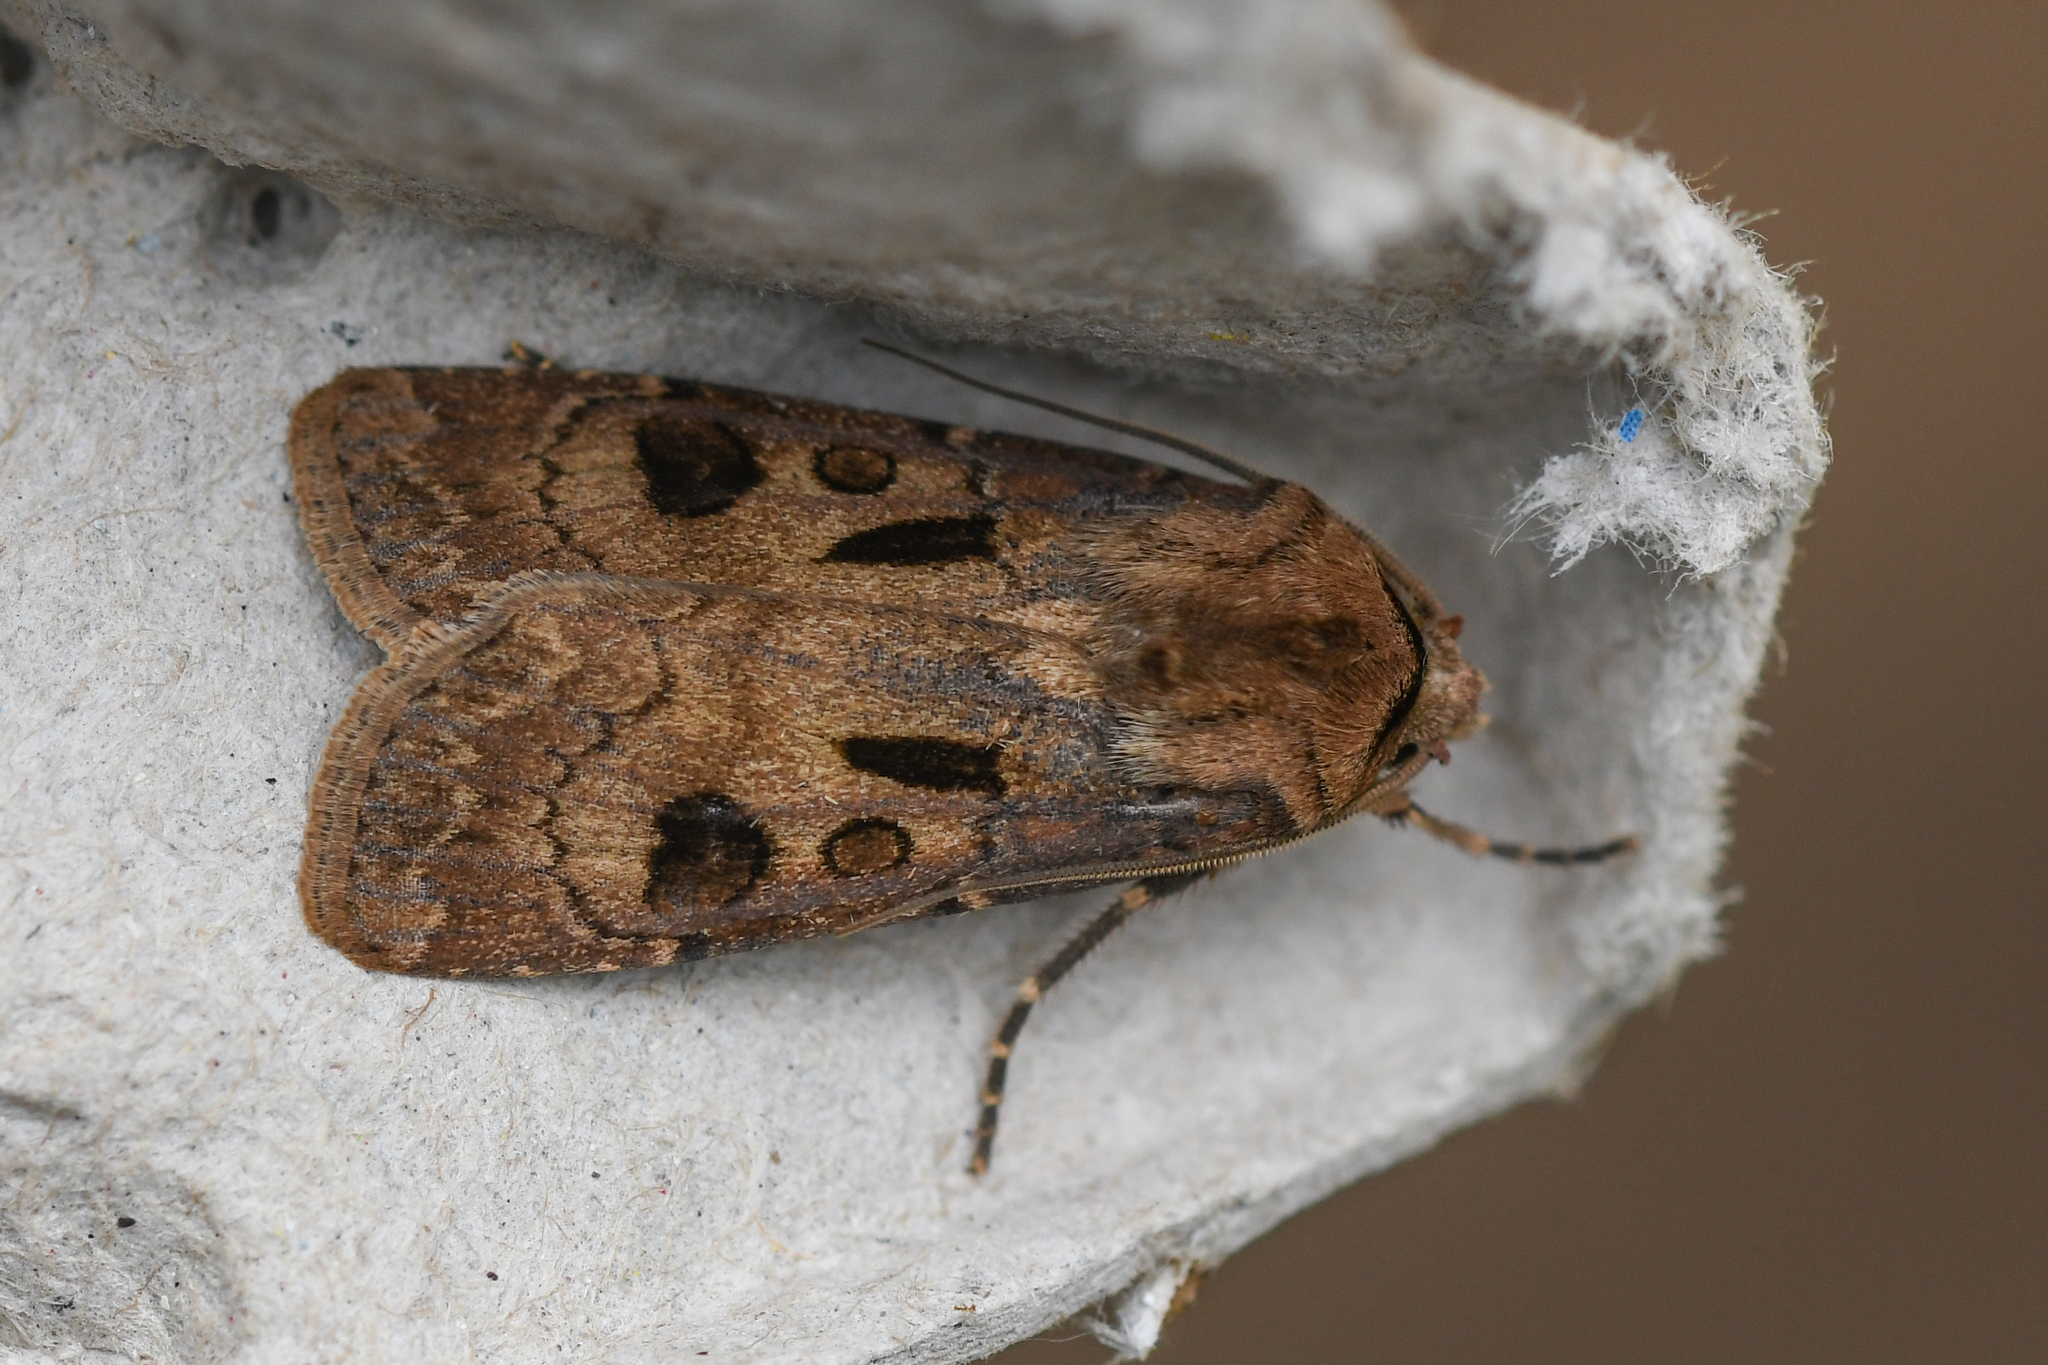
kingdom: Animalia
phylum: Arthropoda
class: Insecta
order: Lepidoptera
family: Noctuidae
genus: Agrotis
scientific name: Agrotis exclamationis
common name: Heart and dart
